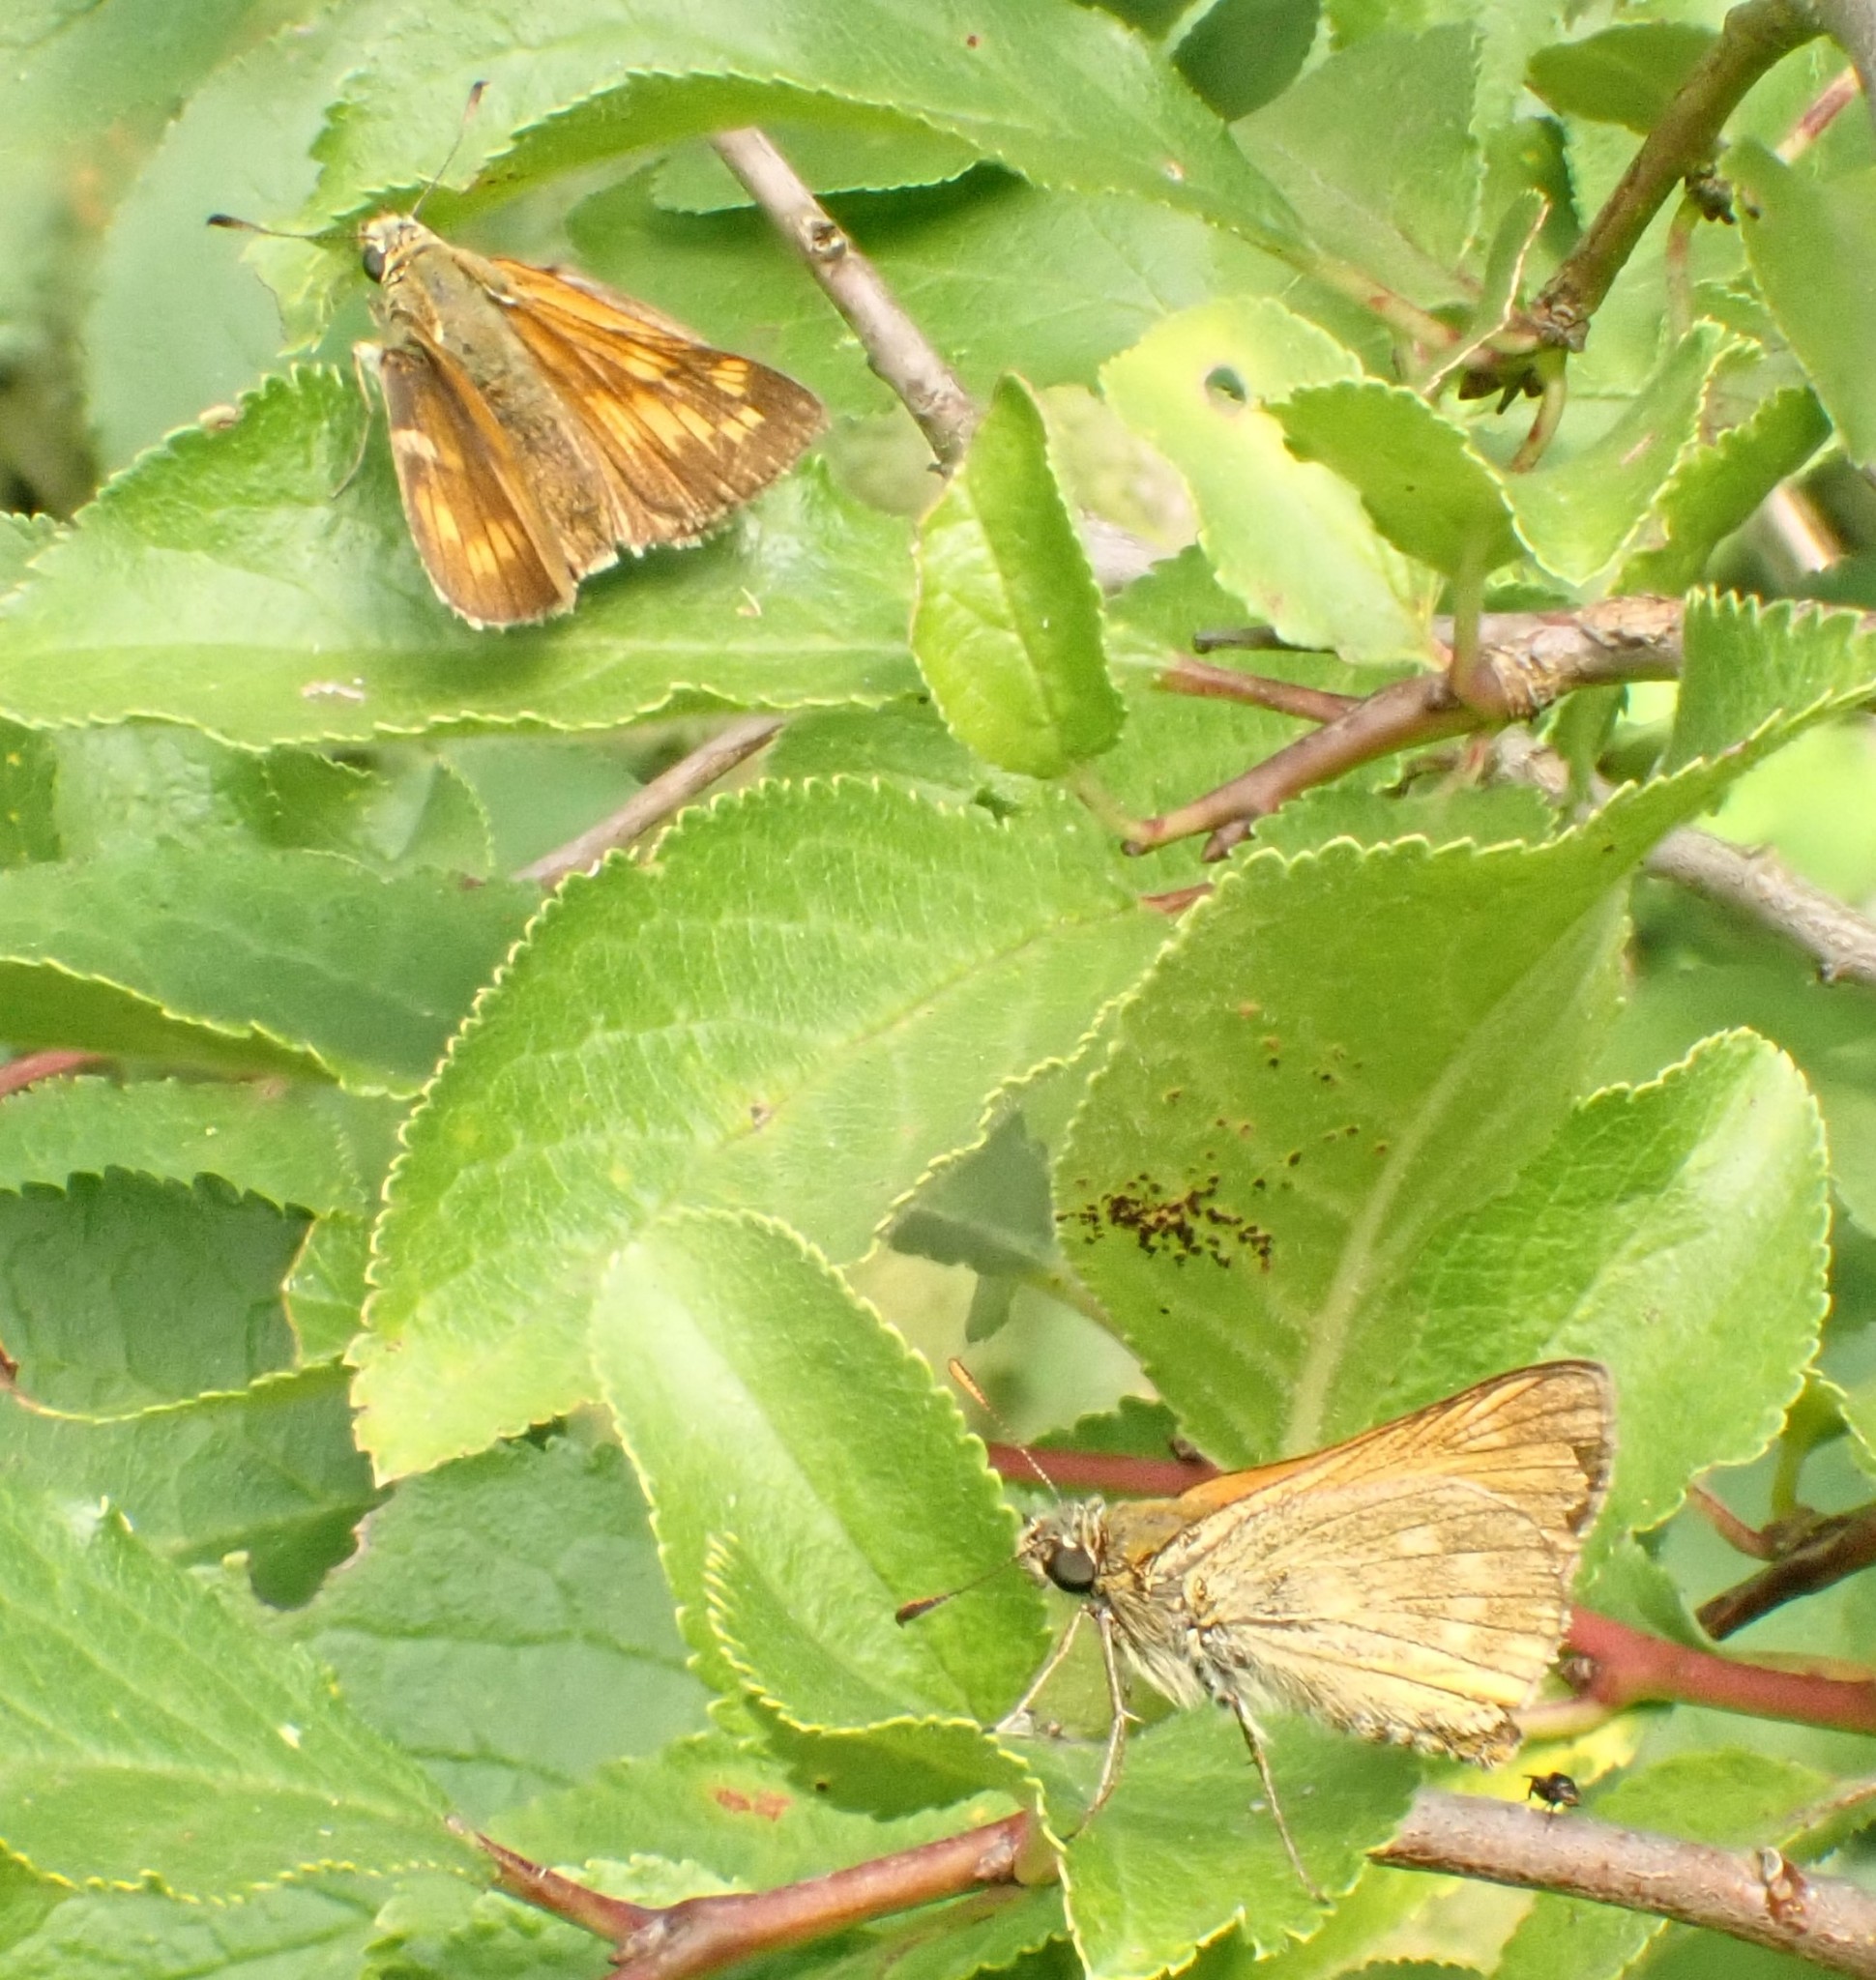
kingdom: Animalia
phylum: Arthropoda
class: Insecta
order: Lepidoptera
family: Hesperiidae
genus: Ochlodes
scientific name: Ochlodes venata
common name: Large skipper
